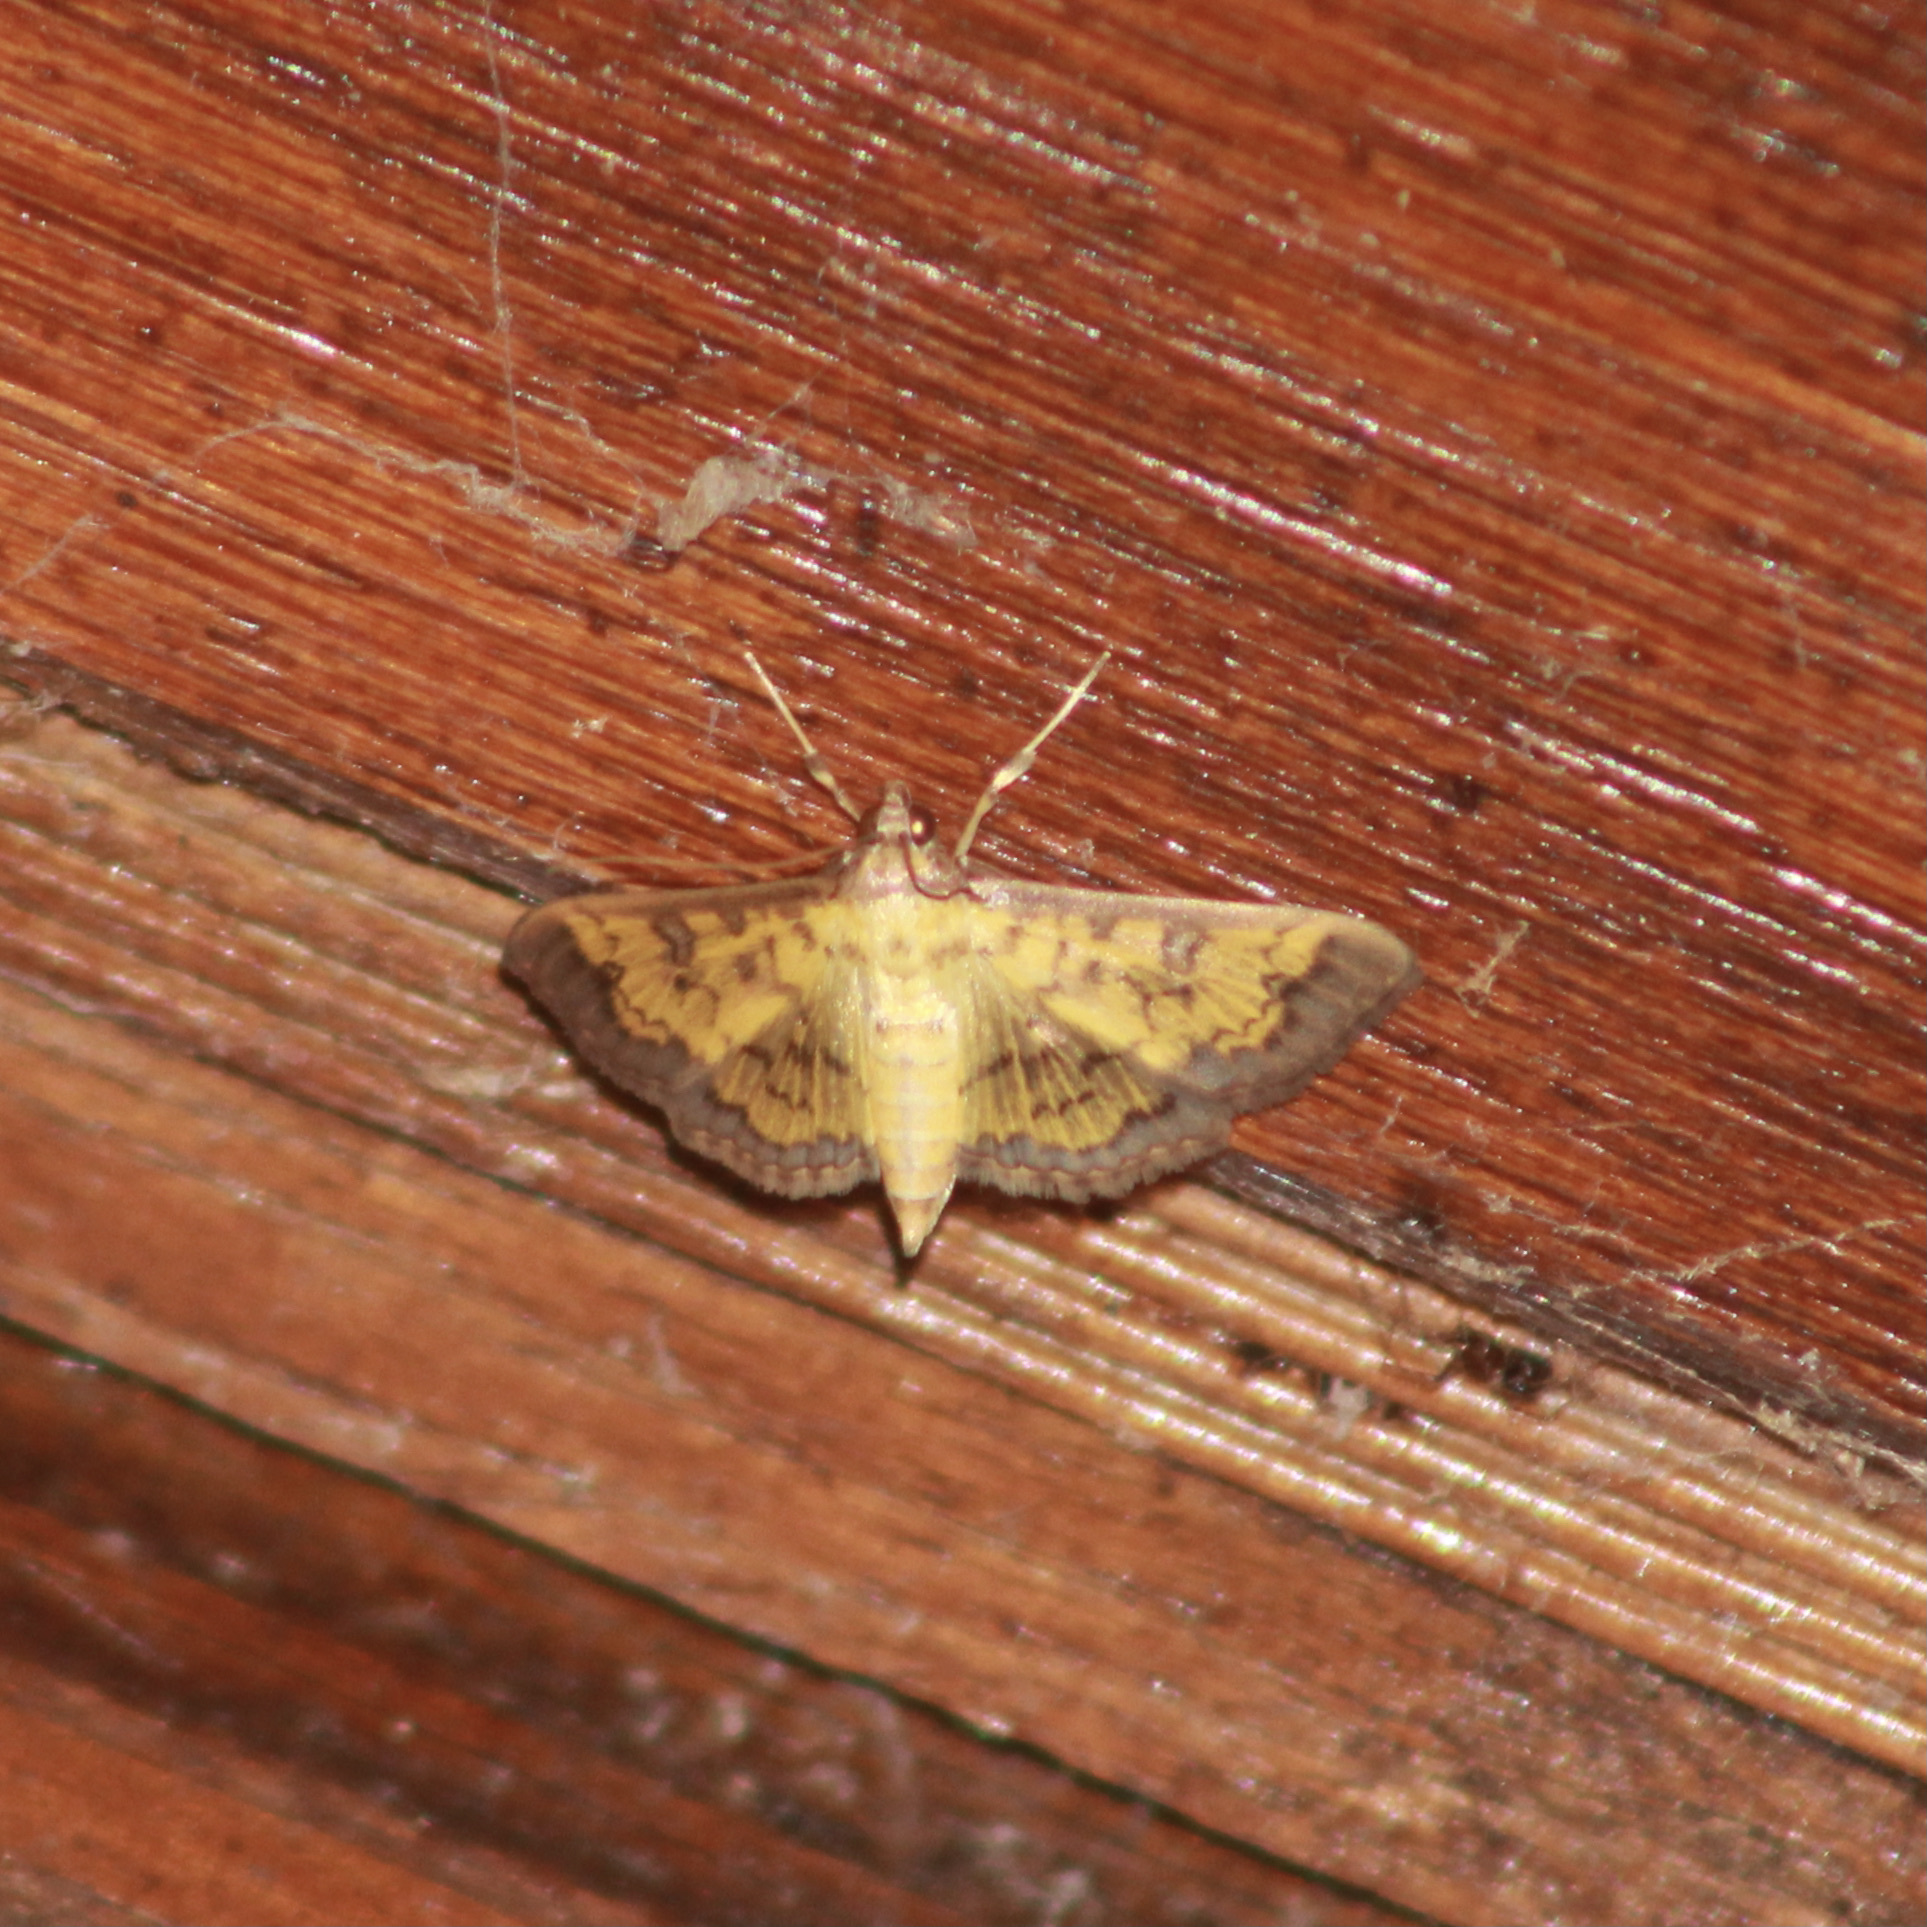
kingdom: Animalia
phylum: Arthropoda
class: Insecta
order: Lepidoptera
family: Crambidae
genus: Diacme
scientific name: Diacme mopsalis
